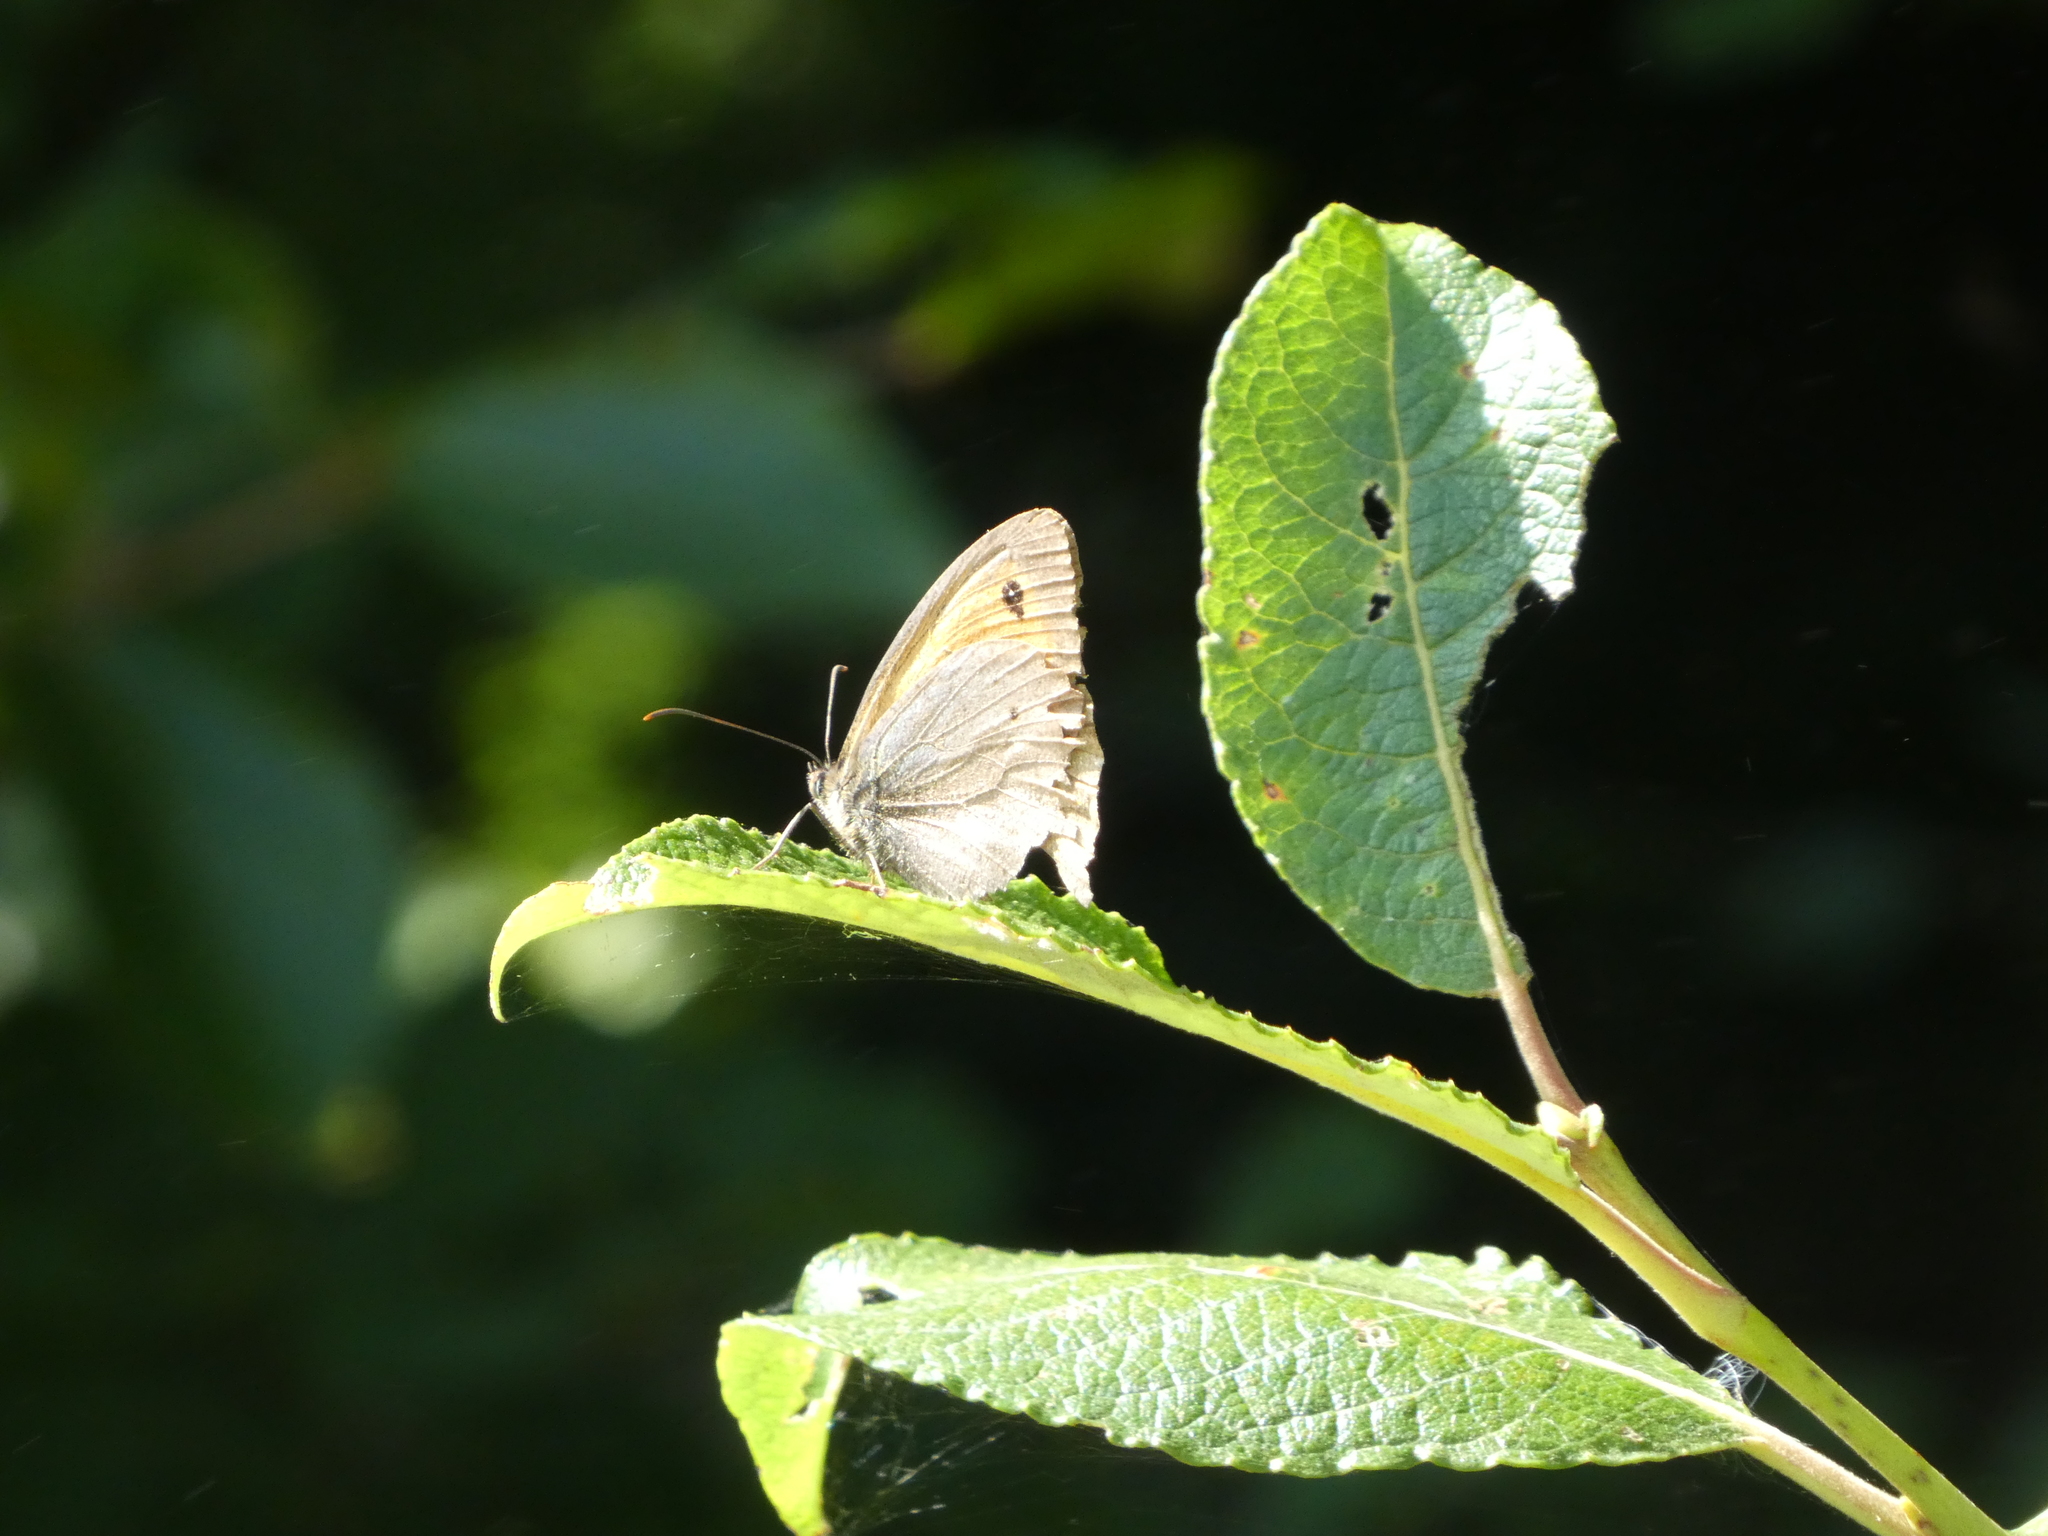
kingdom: Animalia
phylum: Arthropoda
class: Insecta
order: Lepidoptera
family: Nymphalidae
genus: Maniola
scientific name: Maniola jurtina
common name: Meadow brown
